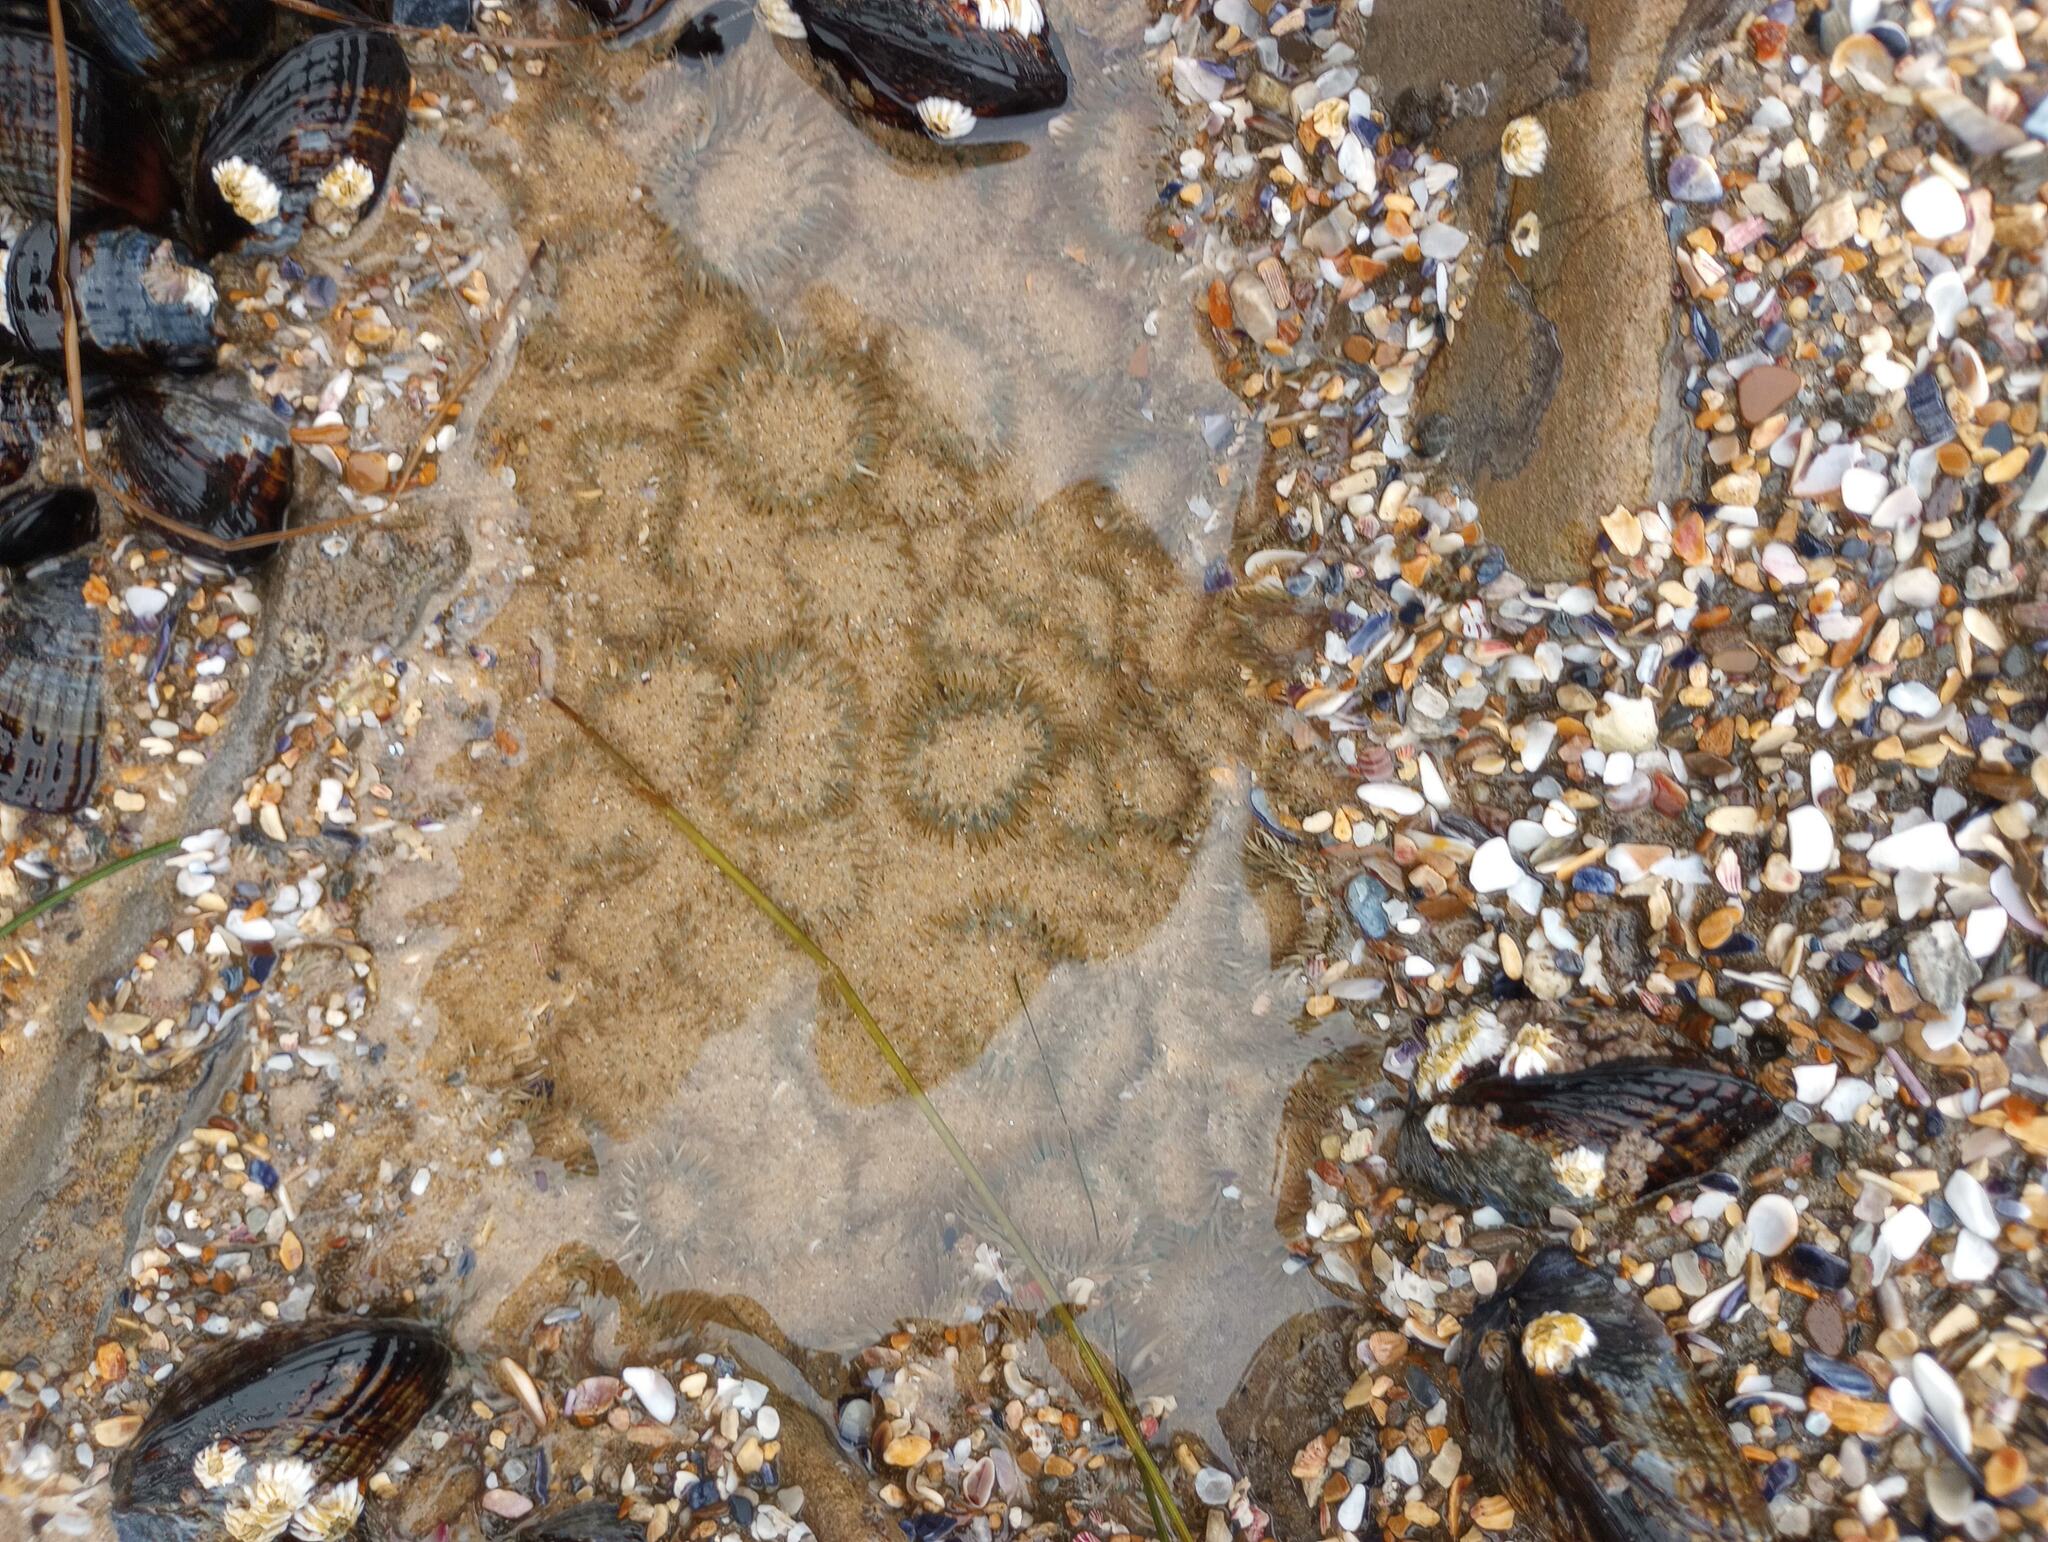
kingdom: Animalia
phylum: Cnidaria
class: Anthozoa
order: Actiniaria
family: Actiniidae
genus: Anthopleura
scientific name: Anthopleura elegantissima
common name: Clonal anemone
